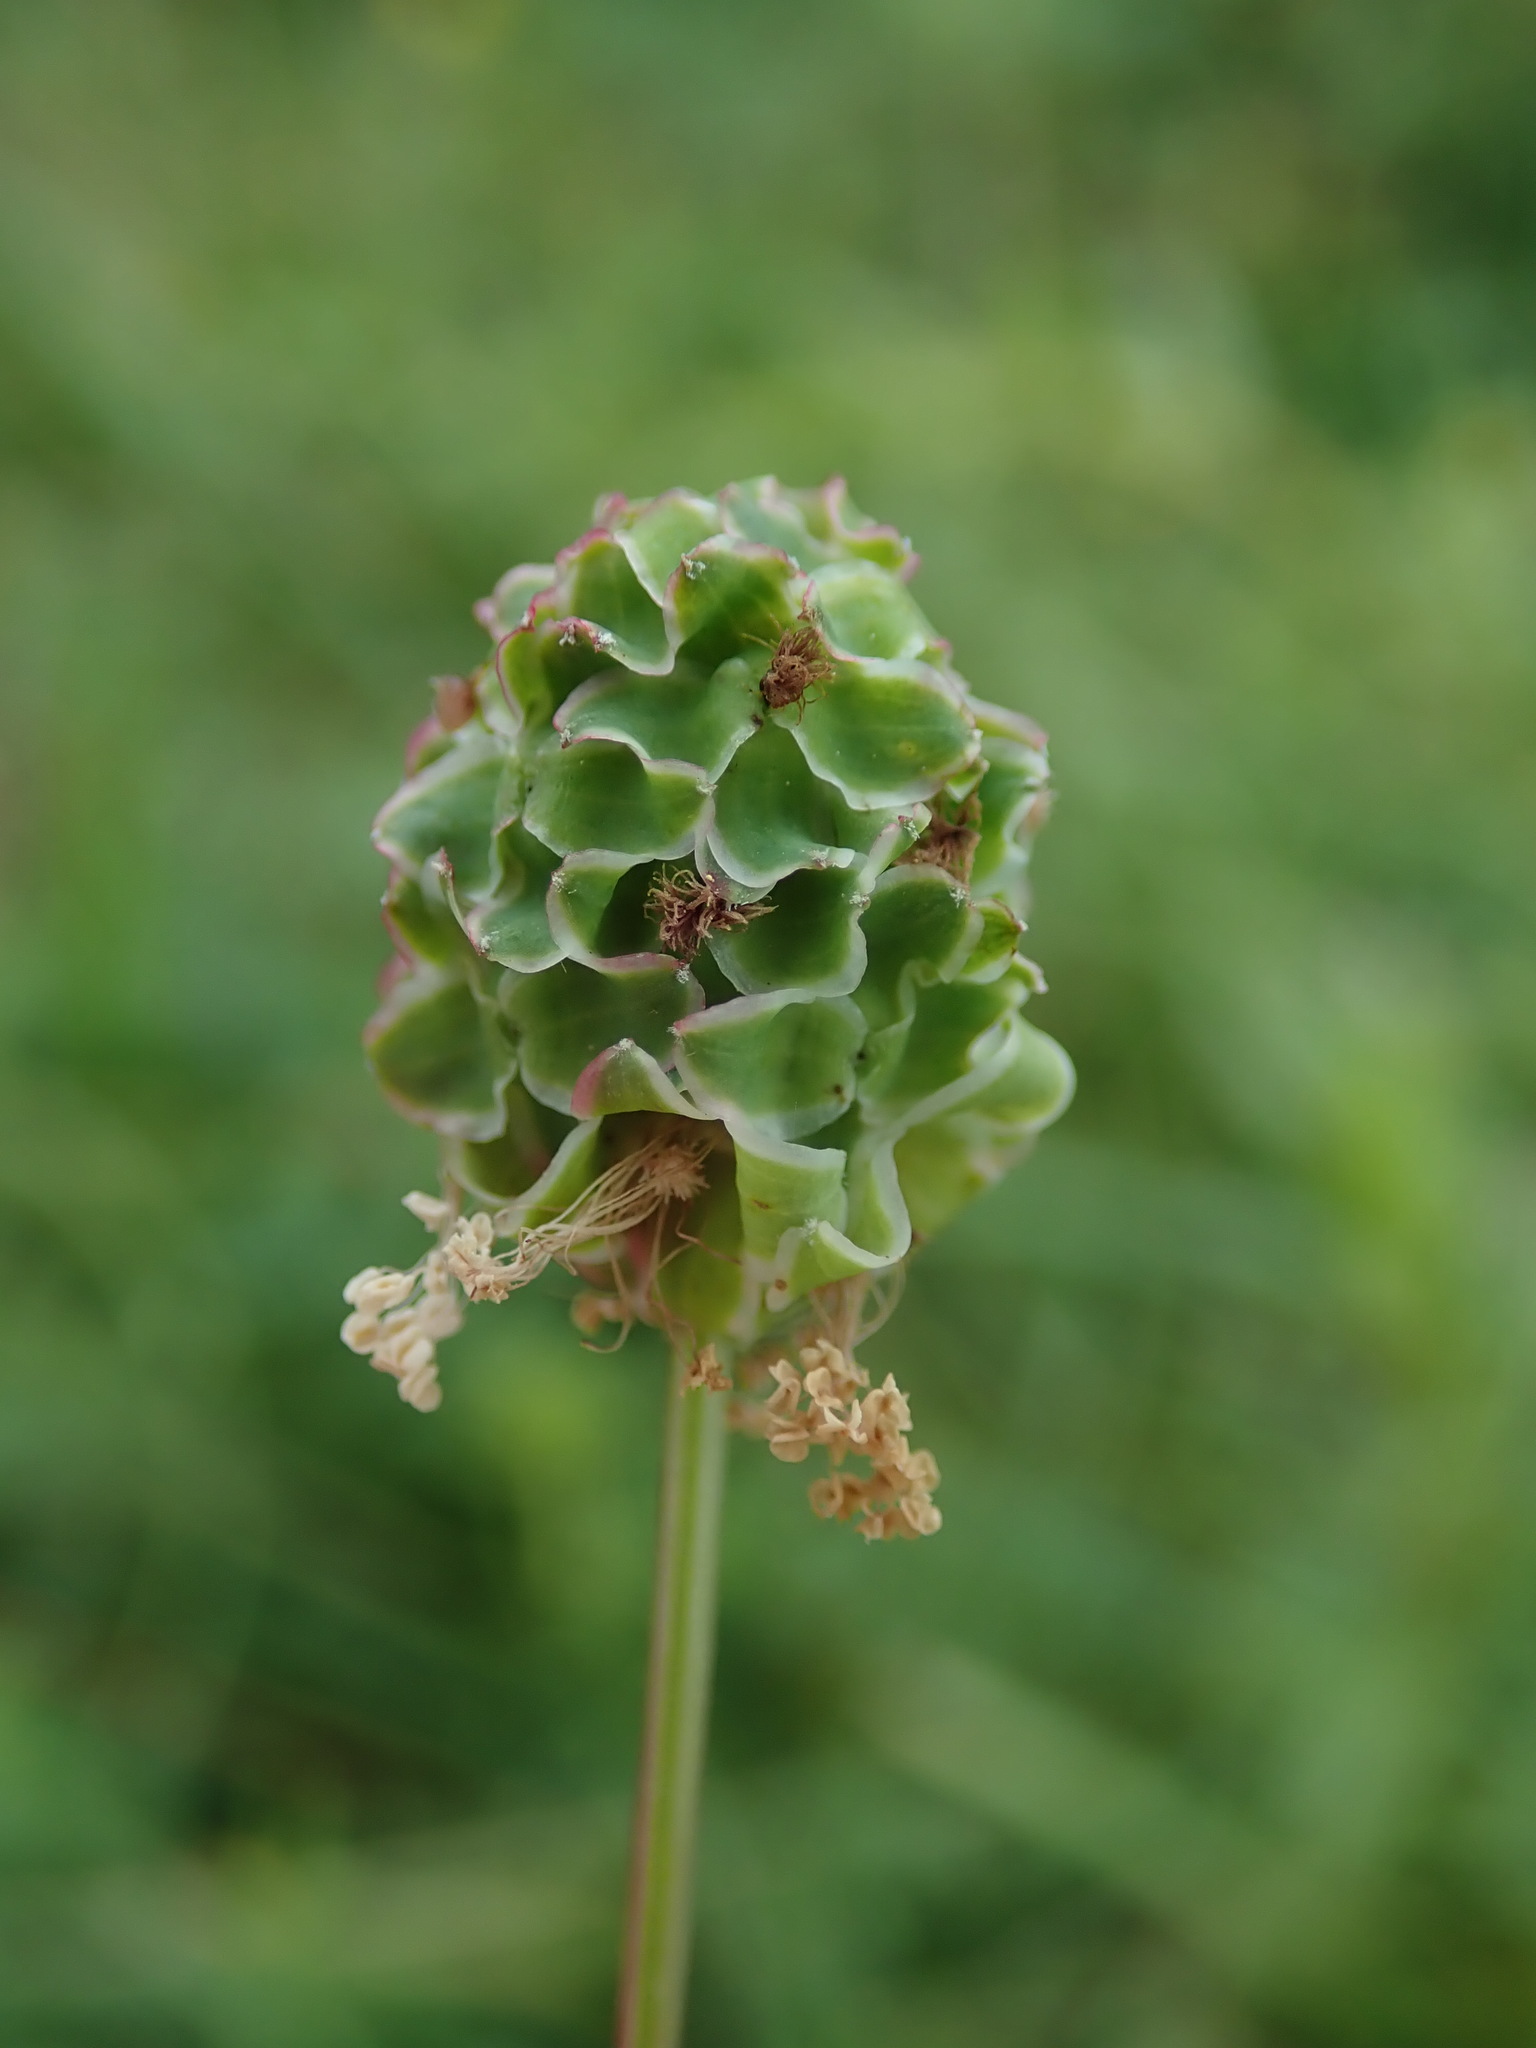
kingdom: Plantae
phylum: Tracheophyta
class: Magnoliopsida
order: Rosales
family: Rosaceae
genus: Poterium
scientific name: Poterium sanguisorba
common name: Salad burnet
